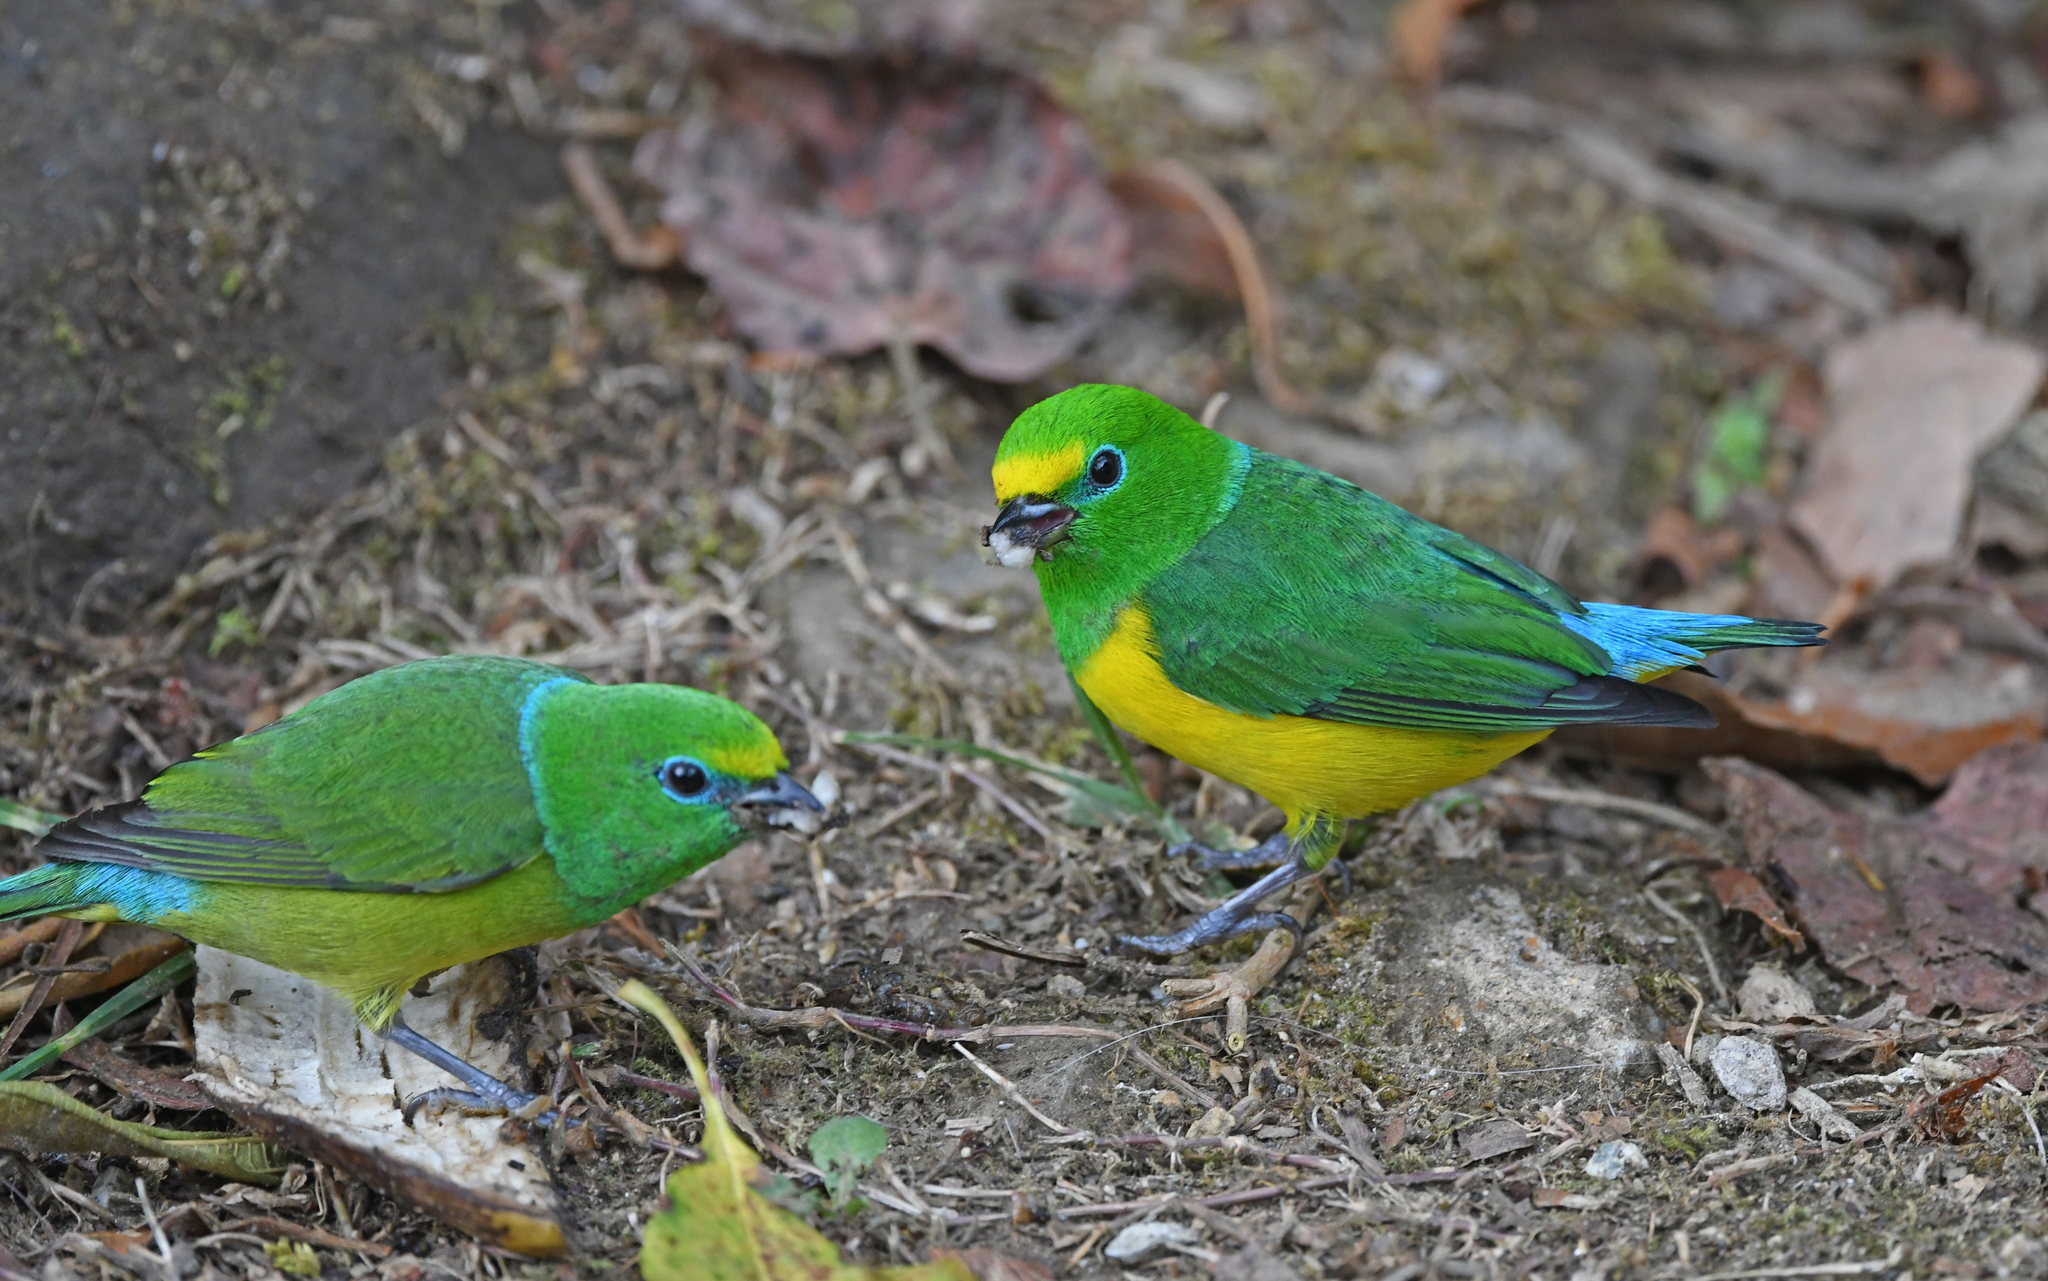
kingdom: Animalia
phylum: Chordata
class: Aves
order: Passeriformes
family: Fringillidae
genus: Chlorophonia
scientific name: Chlorophonia cyanea
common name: Blue-naped chlorophonia
